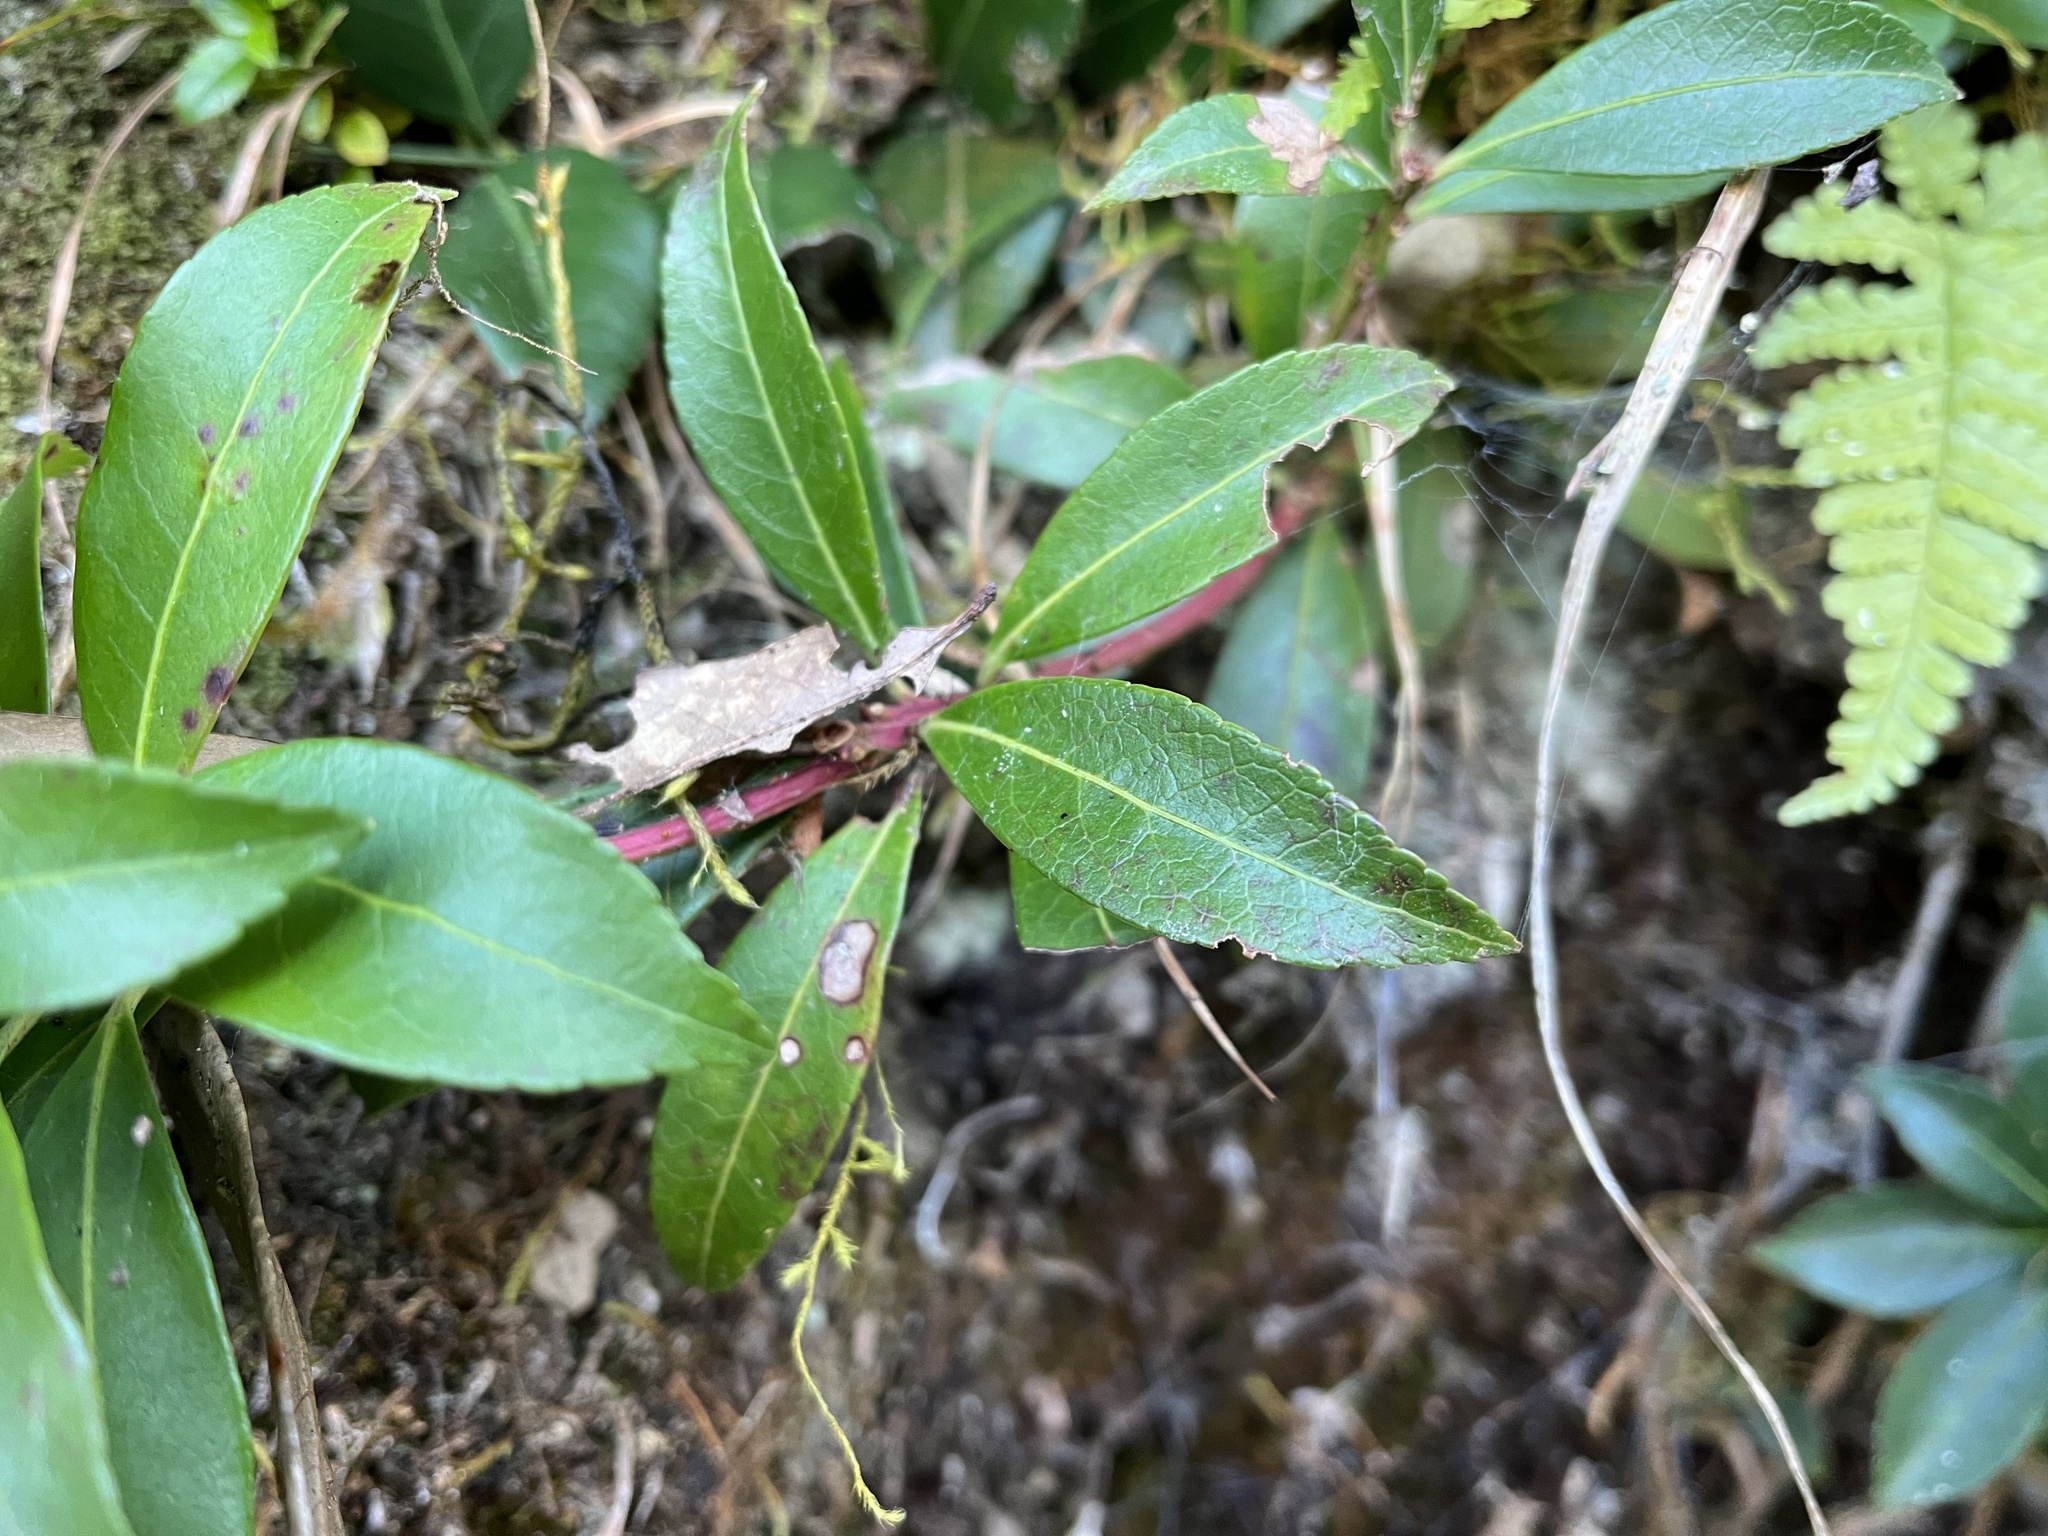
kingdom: Plantae
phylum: Tracheophyta
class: Magnoliopsida
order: Ericales
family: Ericaceae
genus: Pieris
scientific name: Pieris japonica
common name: Japanese pieris
